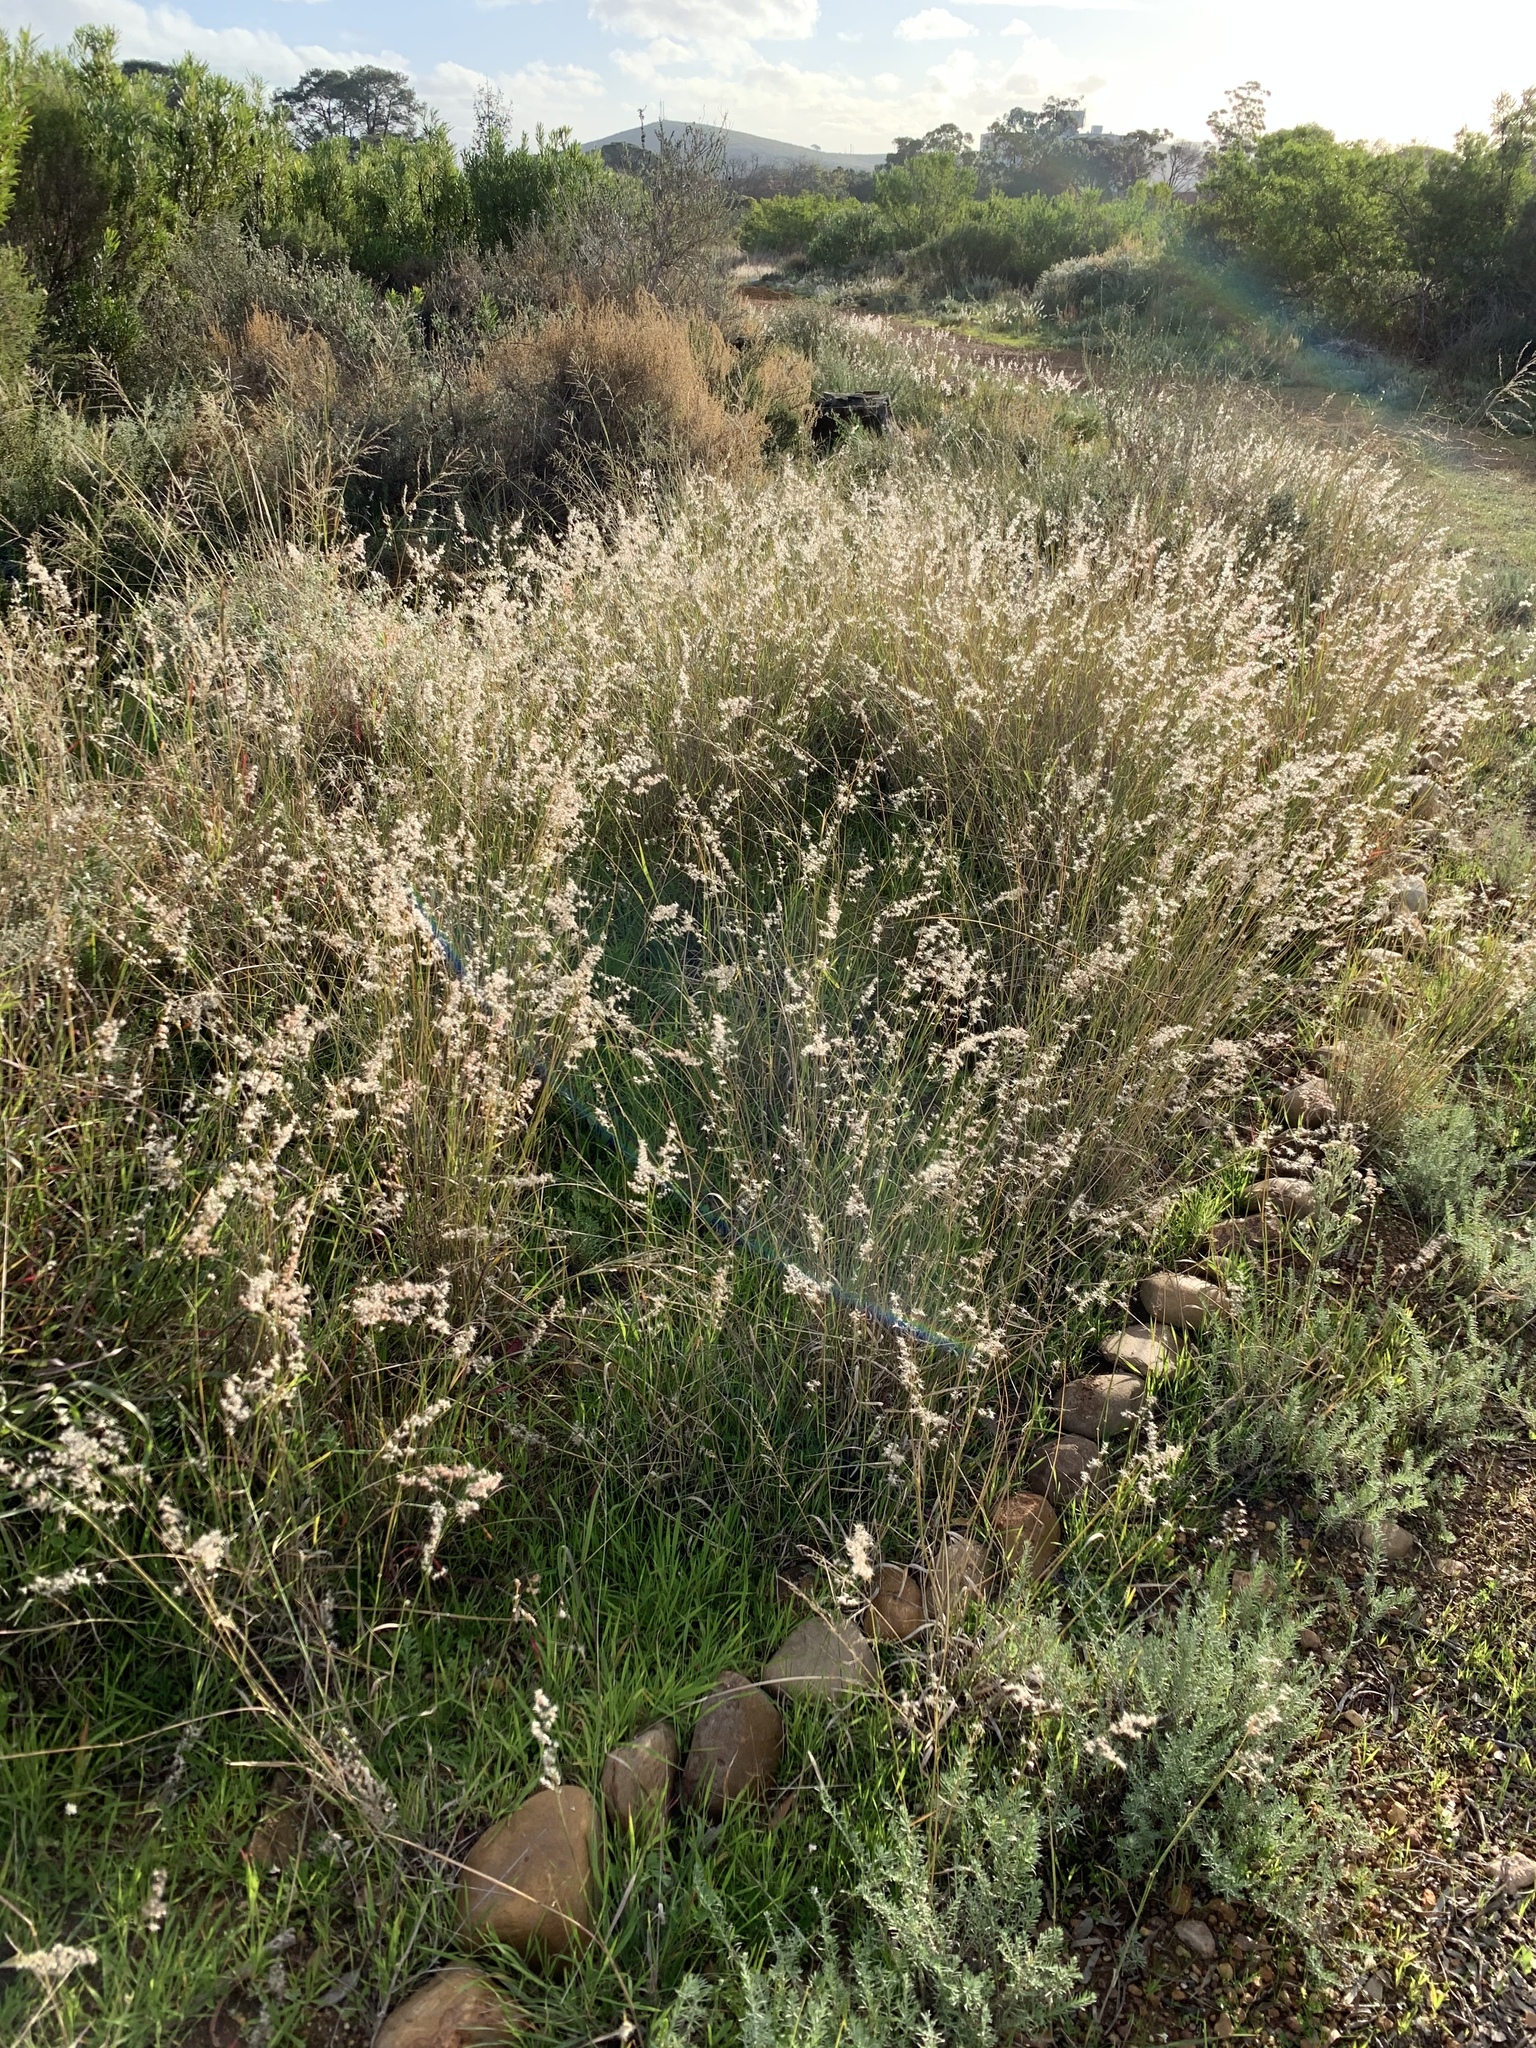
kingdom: Plantae
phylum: Tracheophyta
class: Liliopsida
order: Poales
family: Poaceae
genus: Melinis
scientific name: Melinis repens
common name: Rose natal grass
